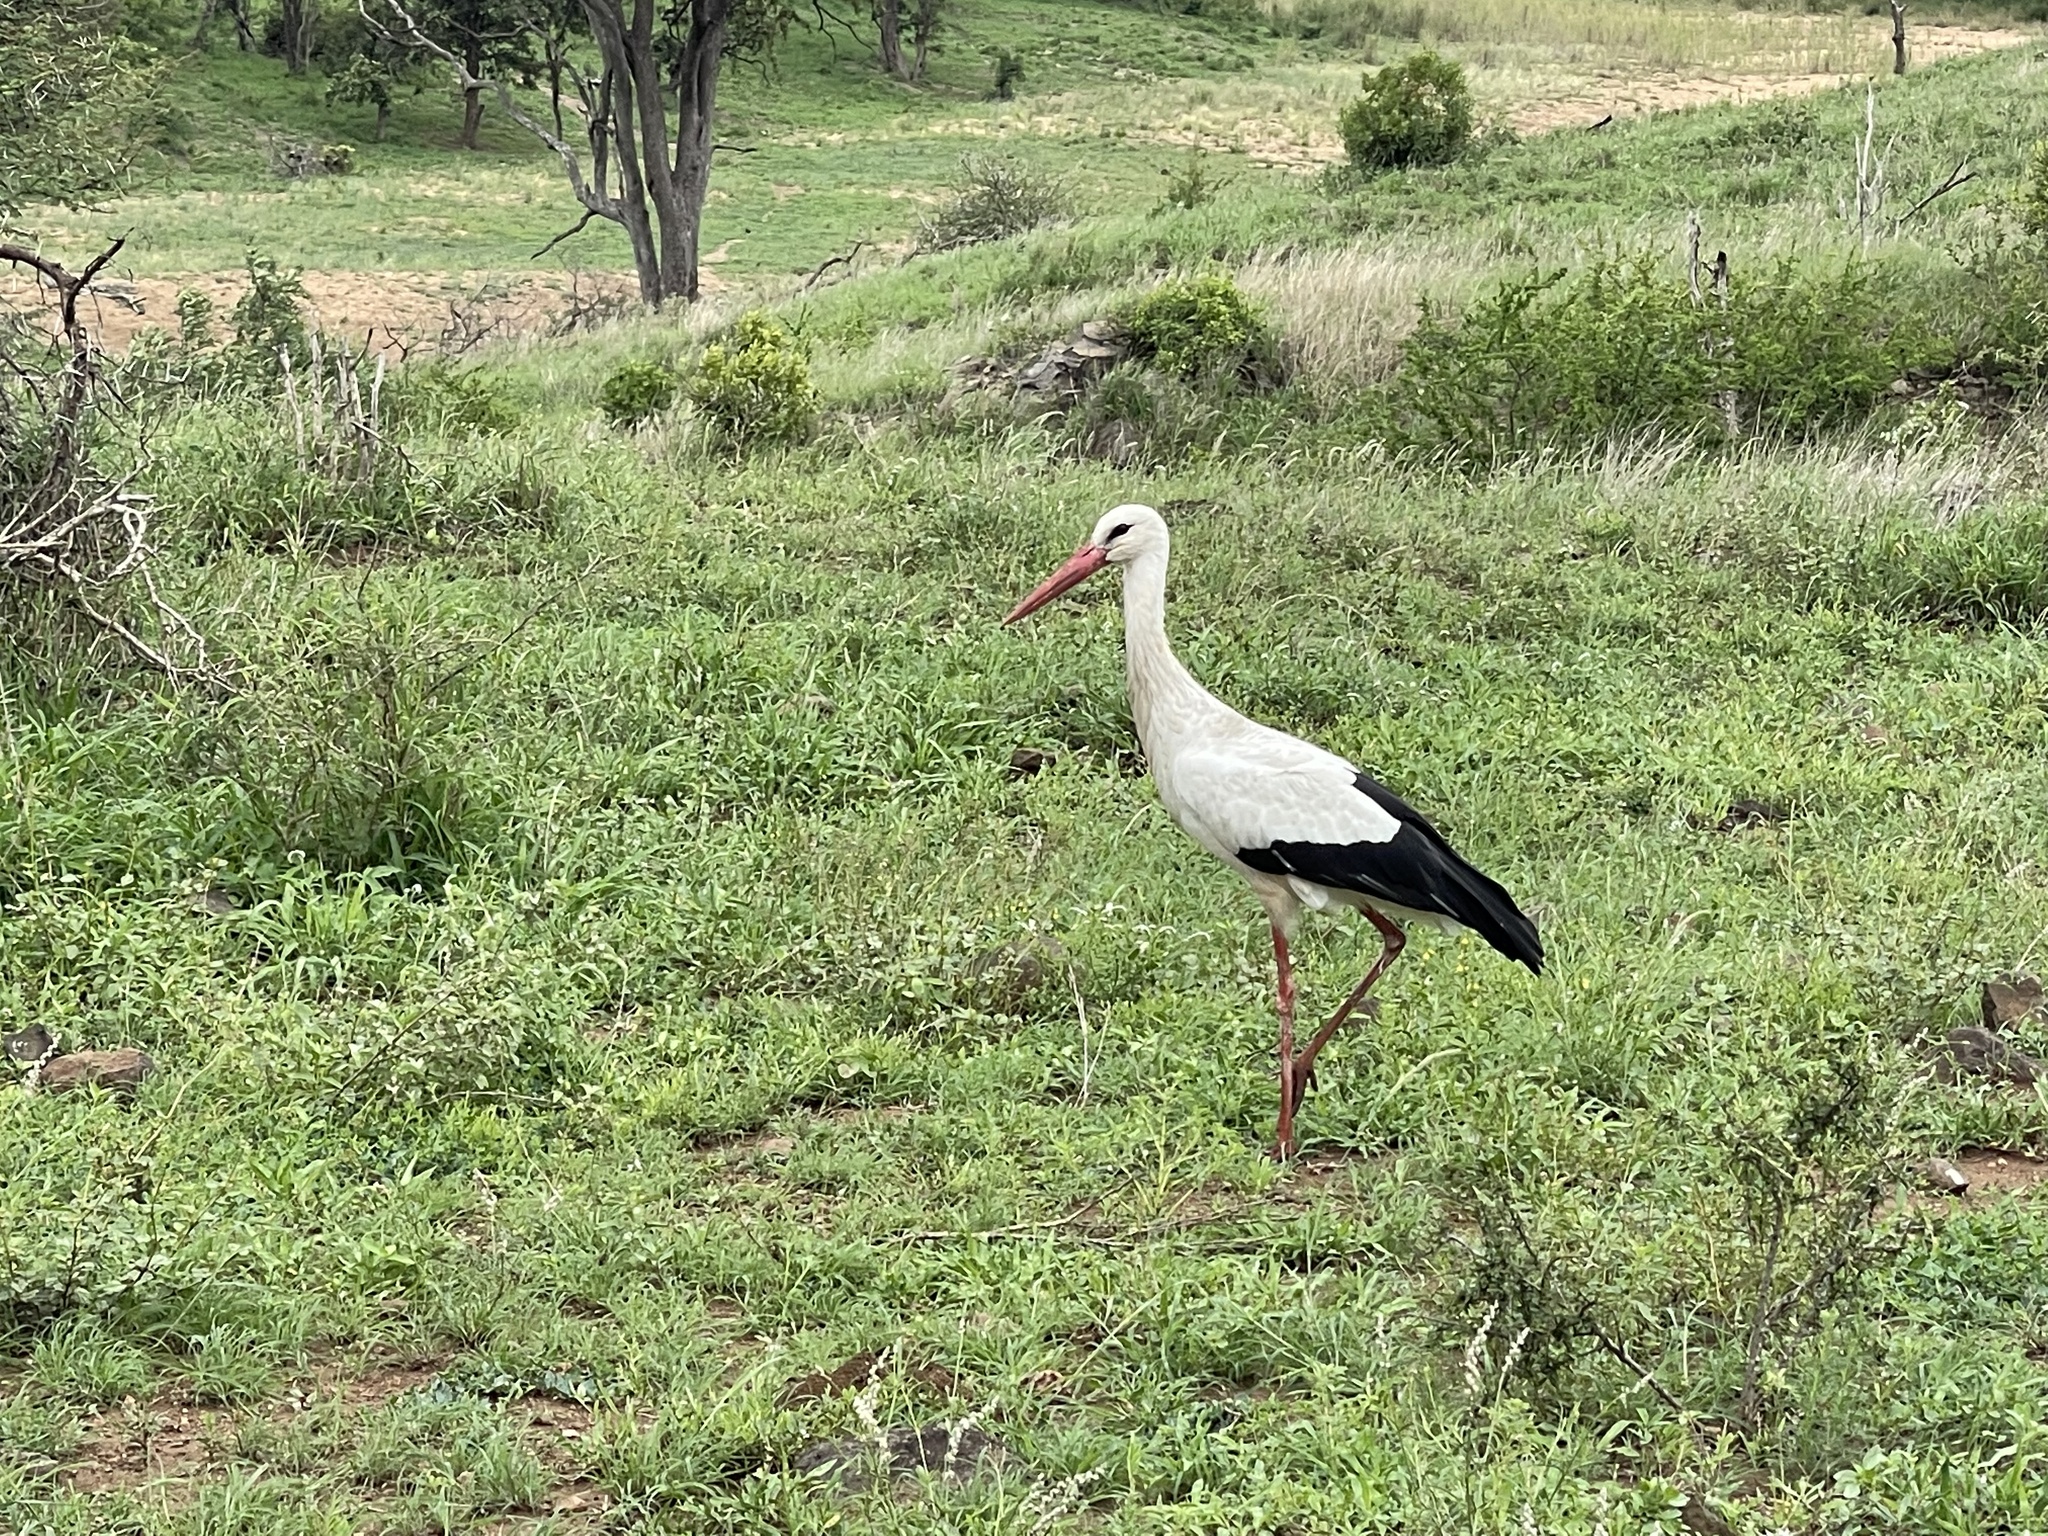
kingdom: Animalia
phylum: Chordata
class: Aves
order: Ciconiiformes
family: Ciconiidae
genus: Ciconia
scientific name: Ciconia ciconia
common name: White stork
